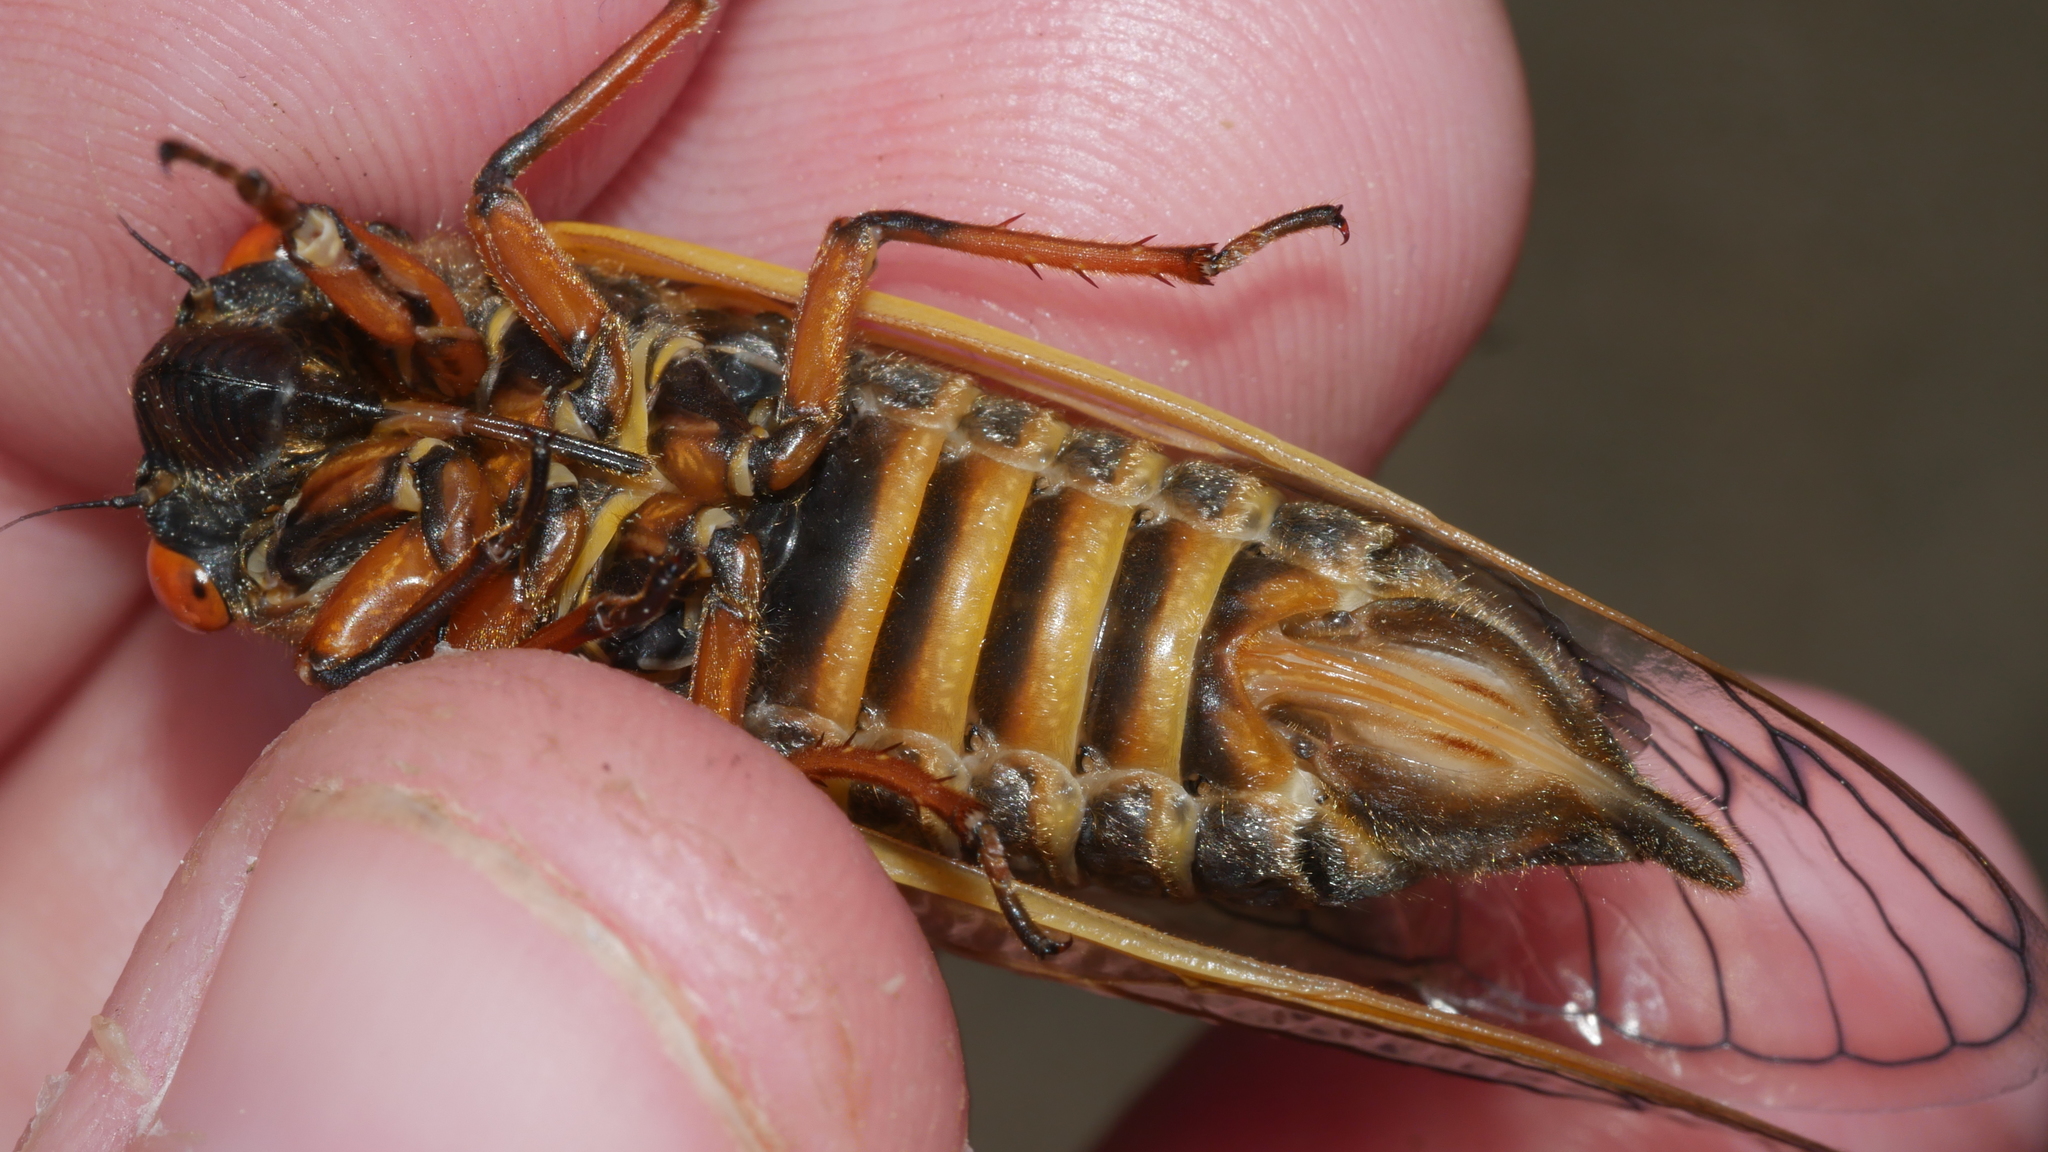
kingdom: Animalia
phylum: Arthropoda
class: Insecta
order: Hemiptera
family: Cicadidae
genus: Magicicada
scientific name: Magicicada septendecim
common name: Periodical cicada
